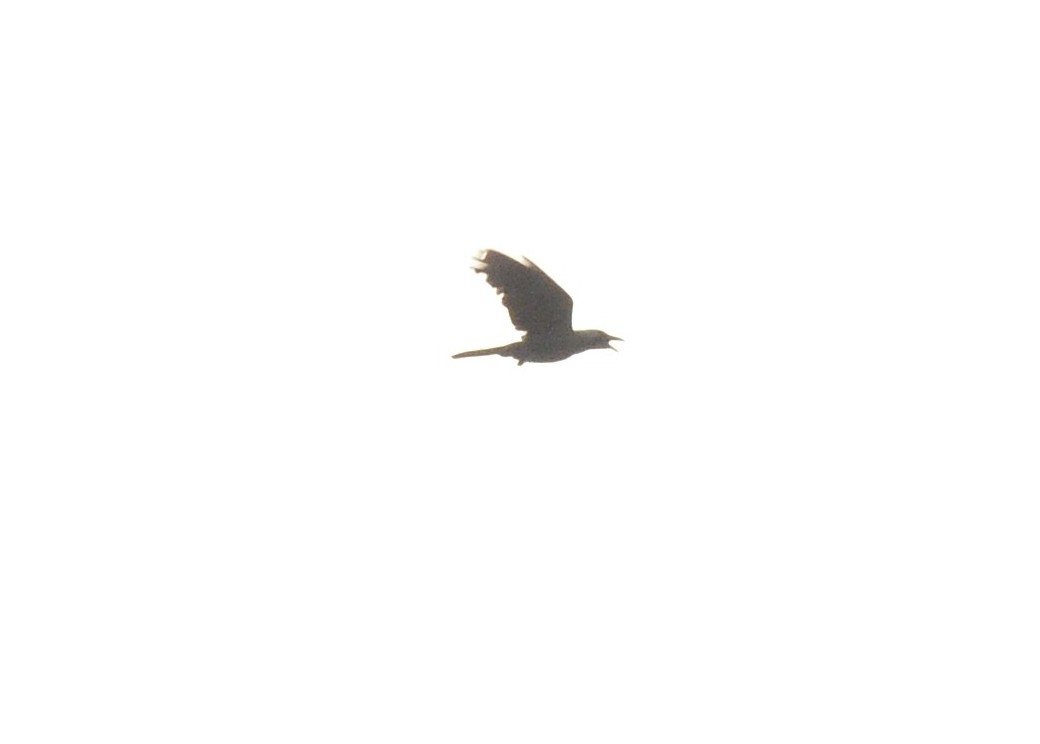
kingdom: Animalia
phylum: Chordata
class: Aves
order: Passeriformes
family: Corvidae
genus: Corvus
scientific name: Corvus splendens
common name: House crow
